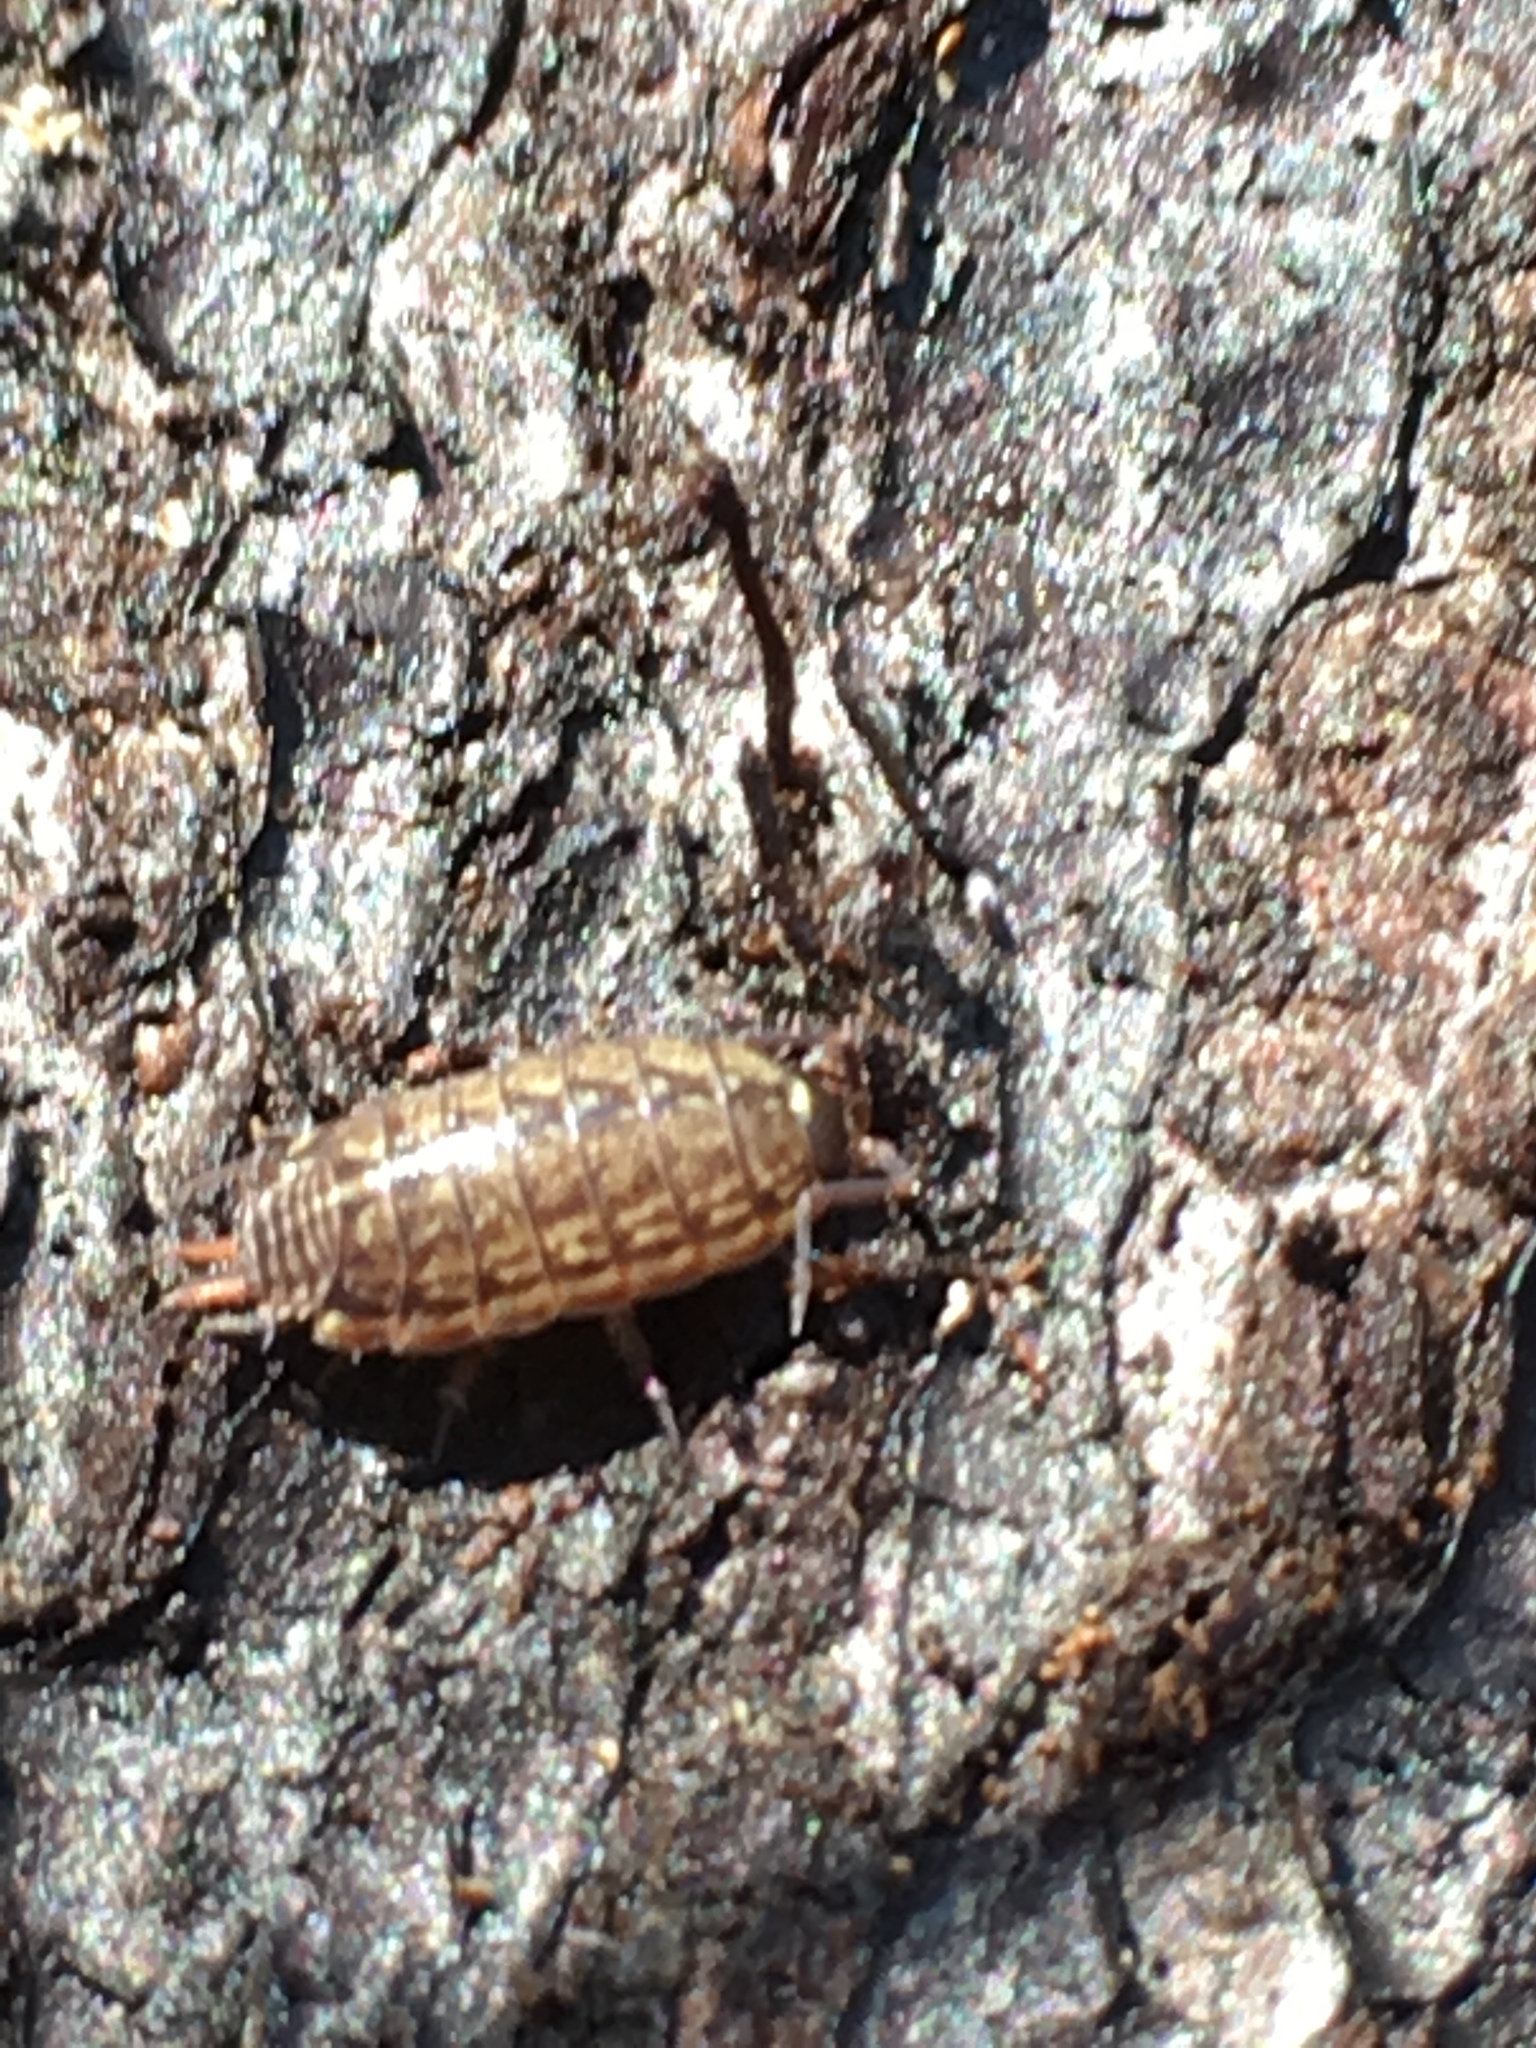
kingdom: Animalia
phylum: Arthropoda
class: Malacostraca
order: Isopoda
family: Philosciidae
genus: Philoscia
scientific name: Philoscia muscorum
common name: Common striped woodlouse
